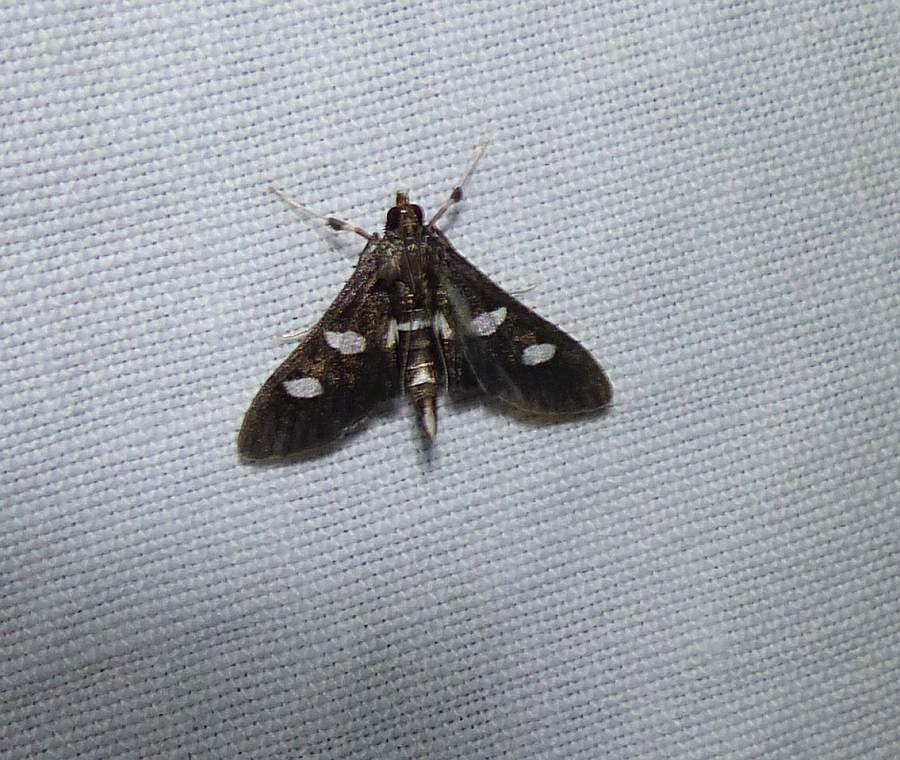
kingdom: Animalia
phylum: Arthropoda
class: Insecta
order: Lepidoptera
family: Crambidae
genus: Desmia
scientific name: Desmia
